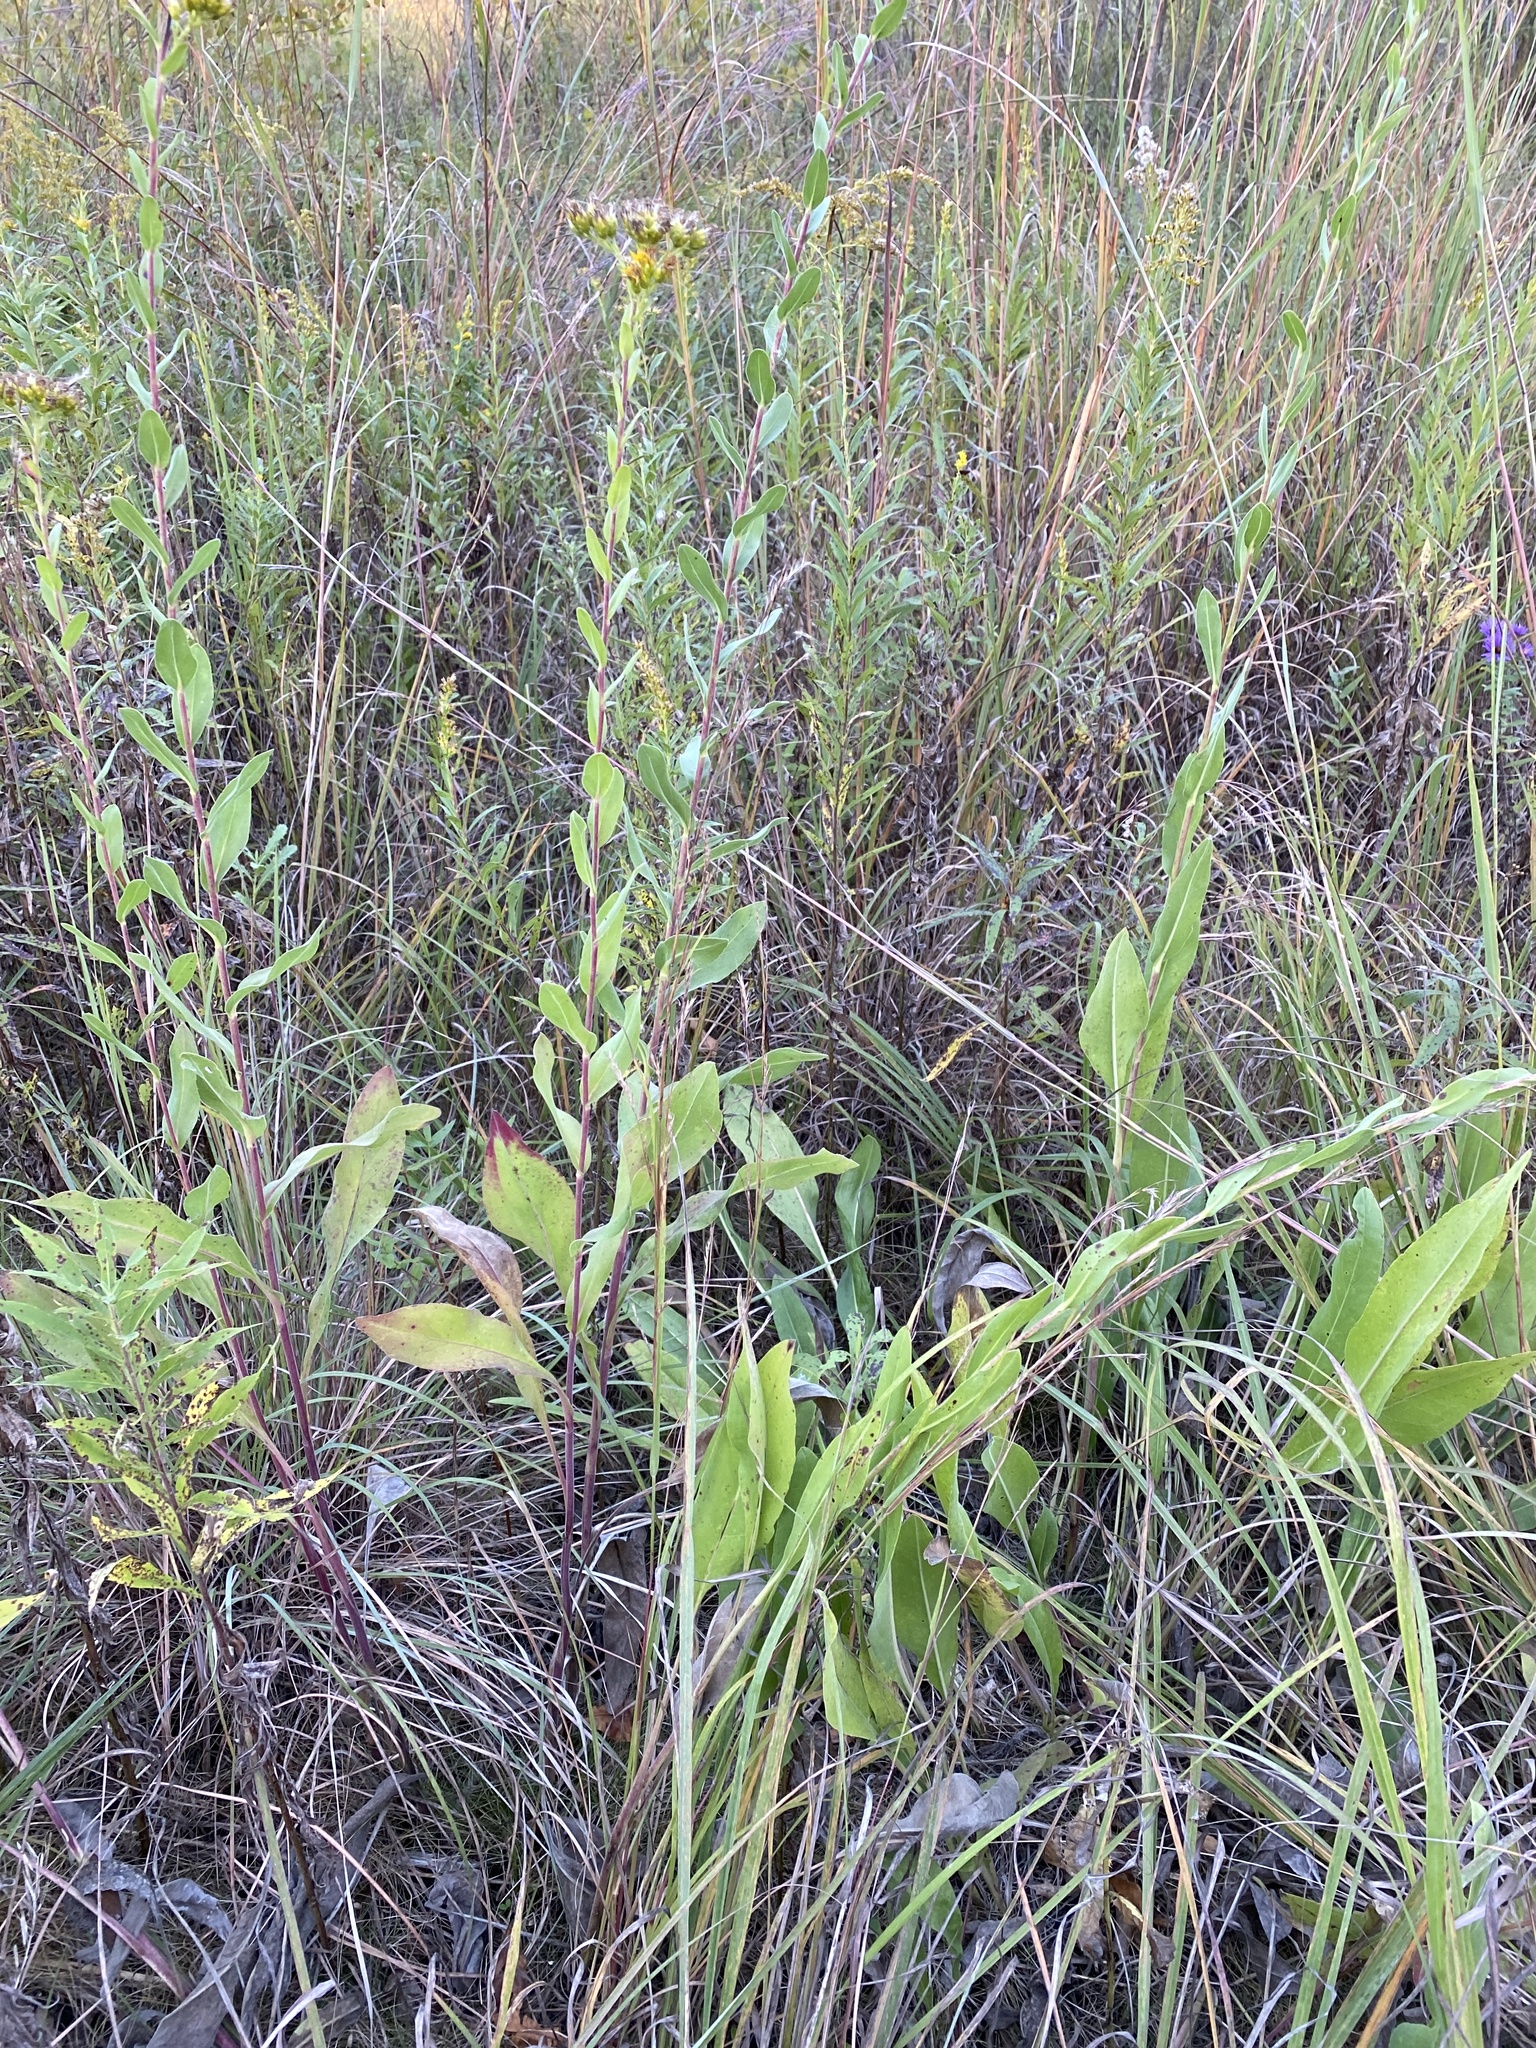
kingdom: Plantae
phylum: Tracheophyta
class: Magnoliopsida
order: Asterales
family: Asteraceae
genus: Solidago
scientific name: Solidago rigida
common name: Rigid goldenrod
